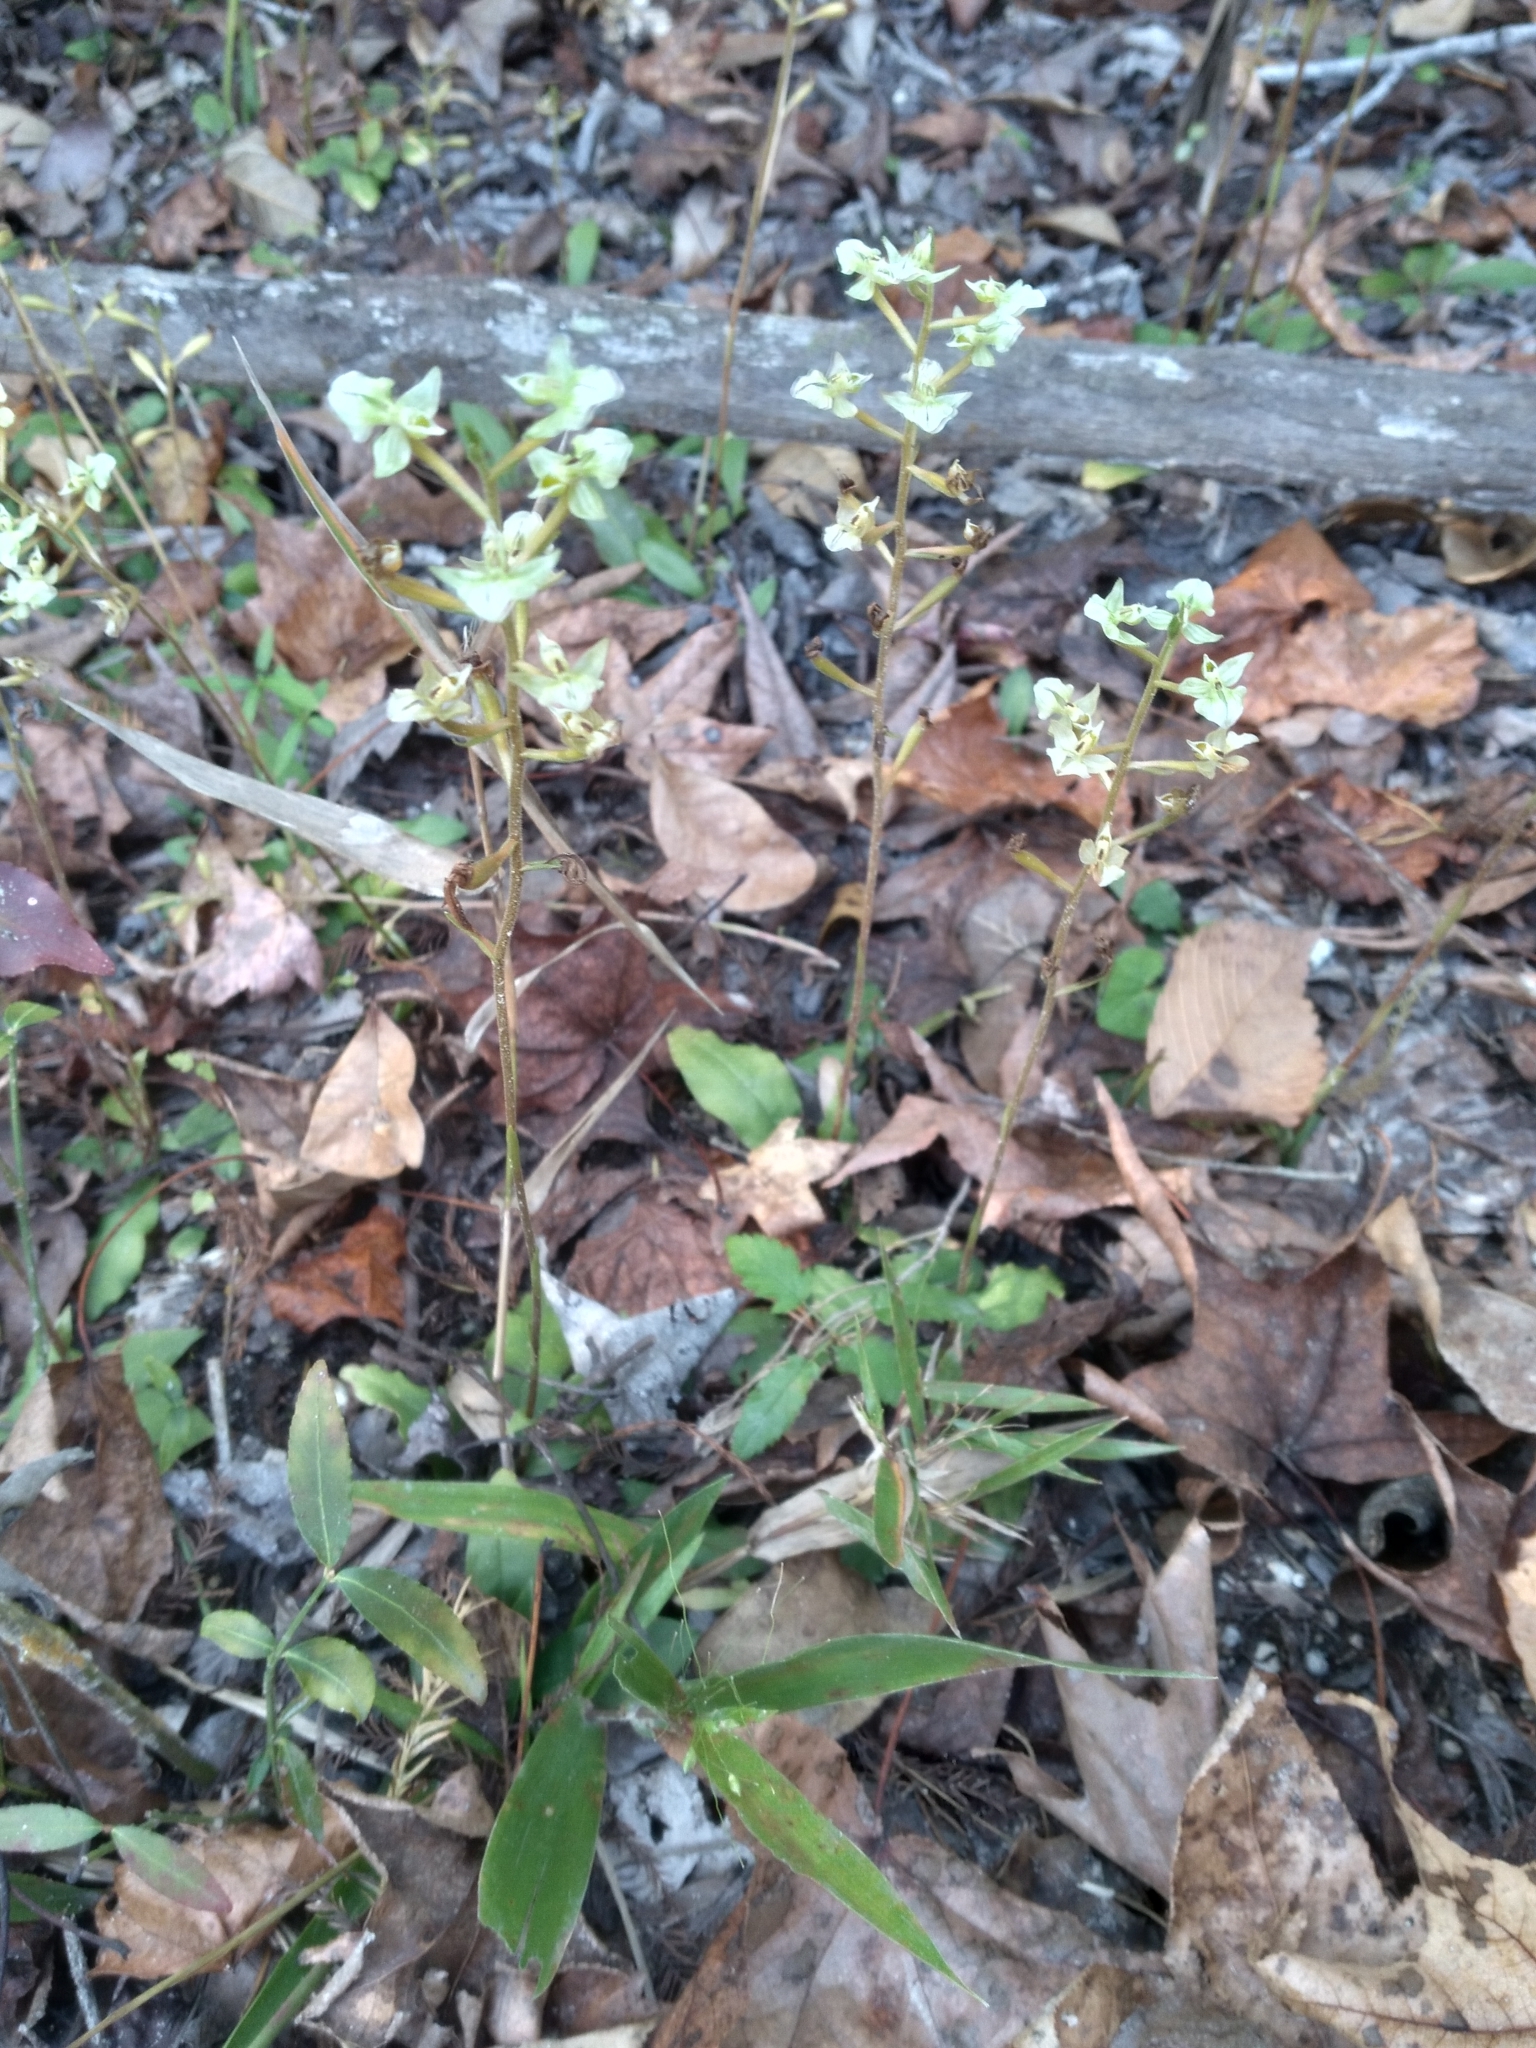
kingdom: Plantae
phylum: Tracheophyta
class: Liliopsida
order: Asparagales
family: Orchidaceae
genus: Ponthieva
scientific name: Ponthieva racemosa
